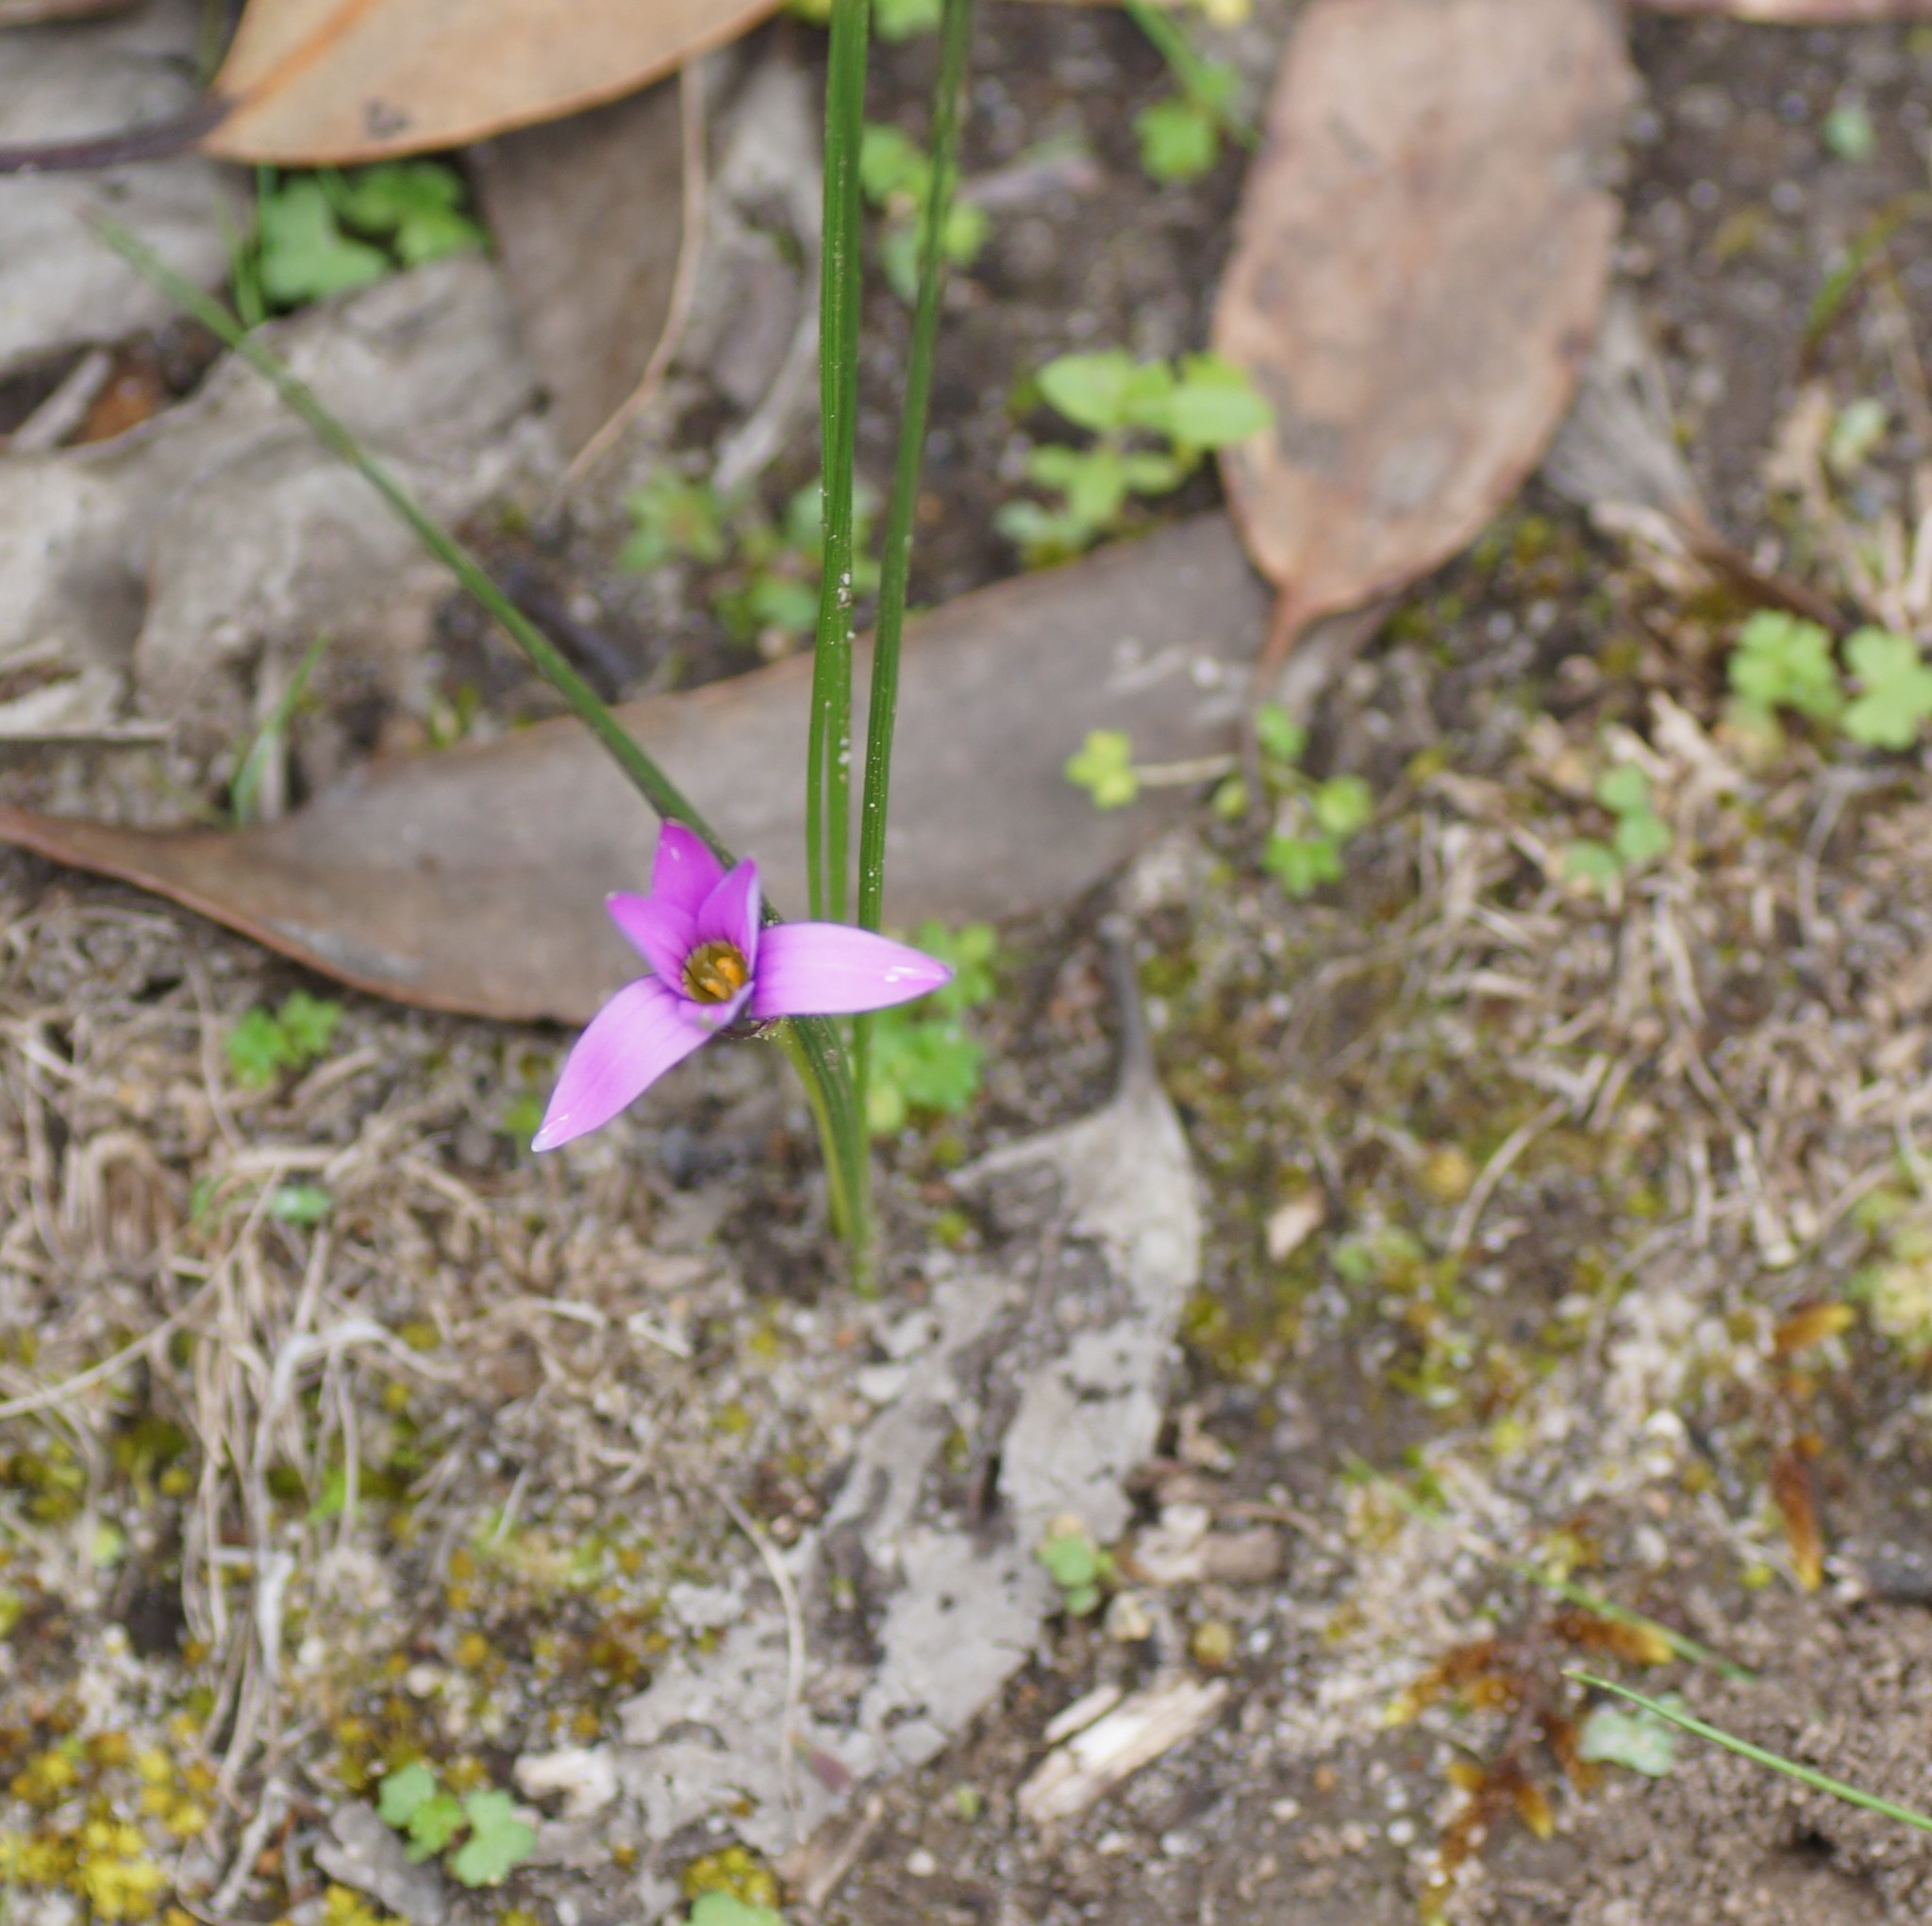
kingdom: Plantae
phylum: Tracheophyta
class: Liliopsida
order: Asparagales
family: Iridaceae
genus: Romulea
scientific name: Romulea rosea
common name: Oniongrass
